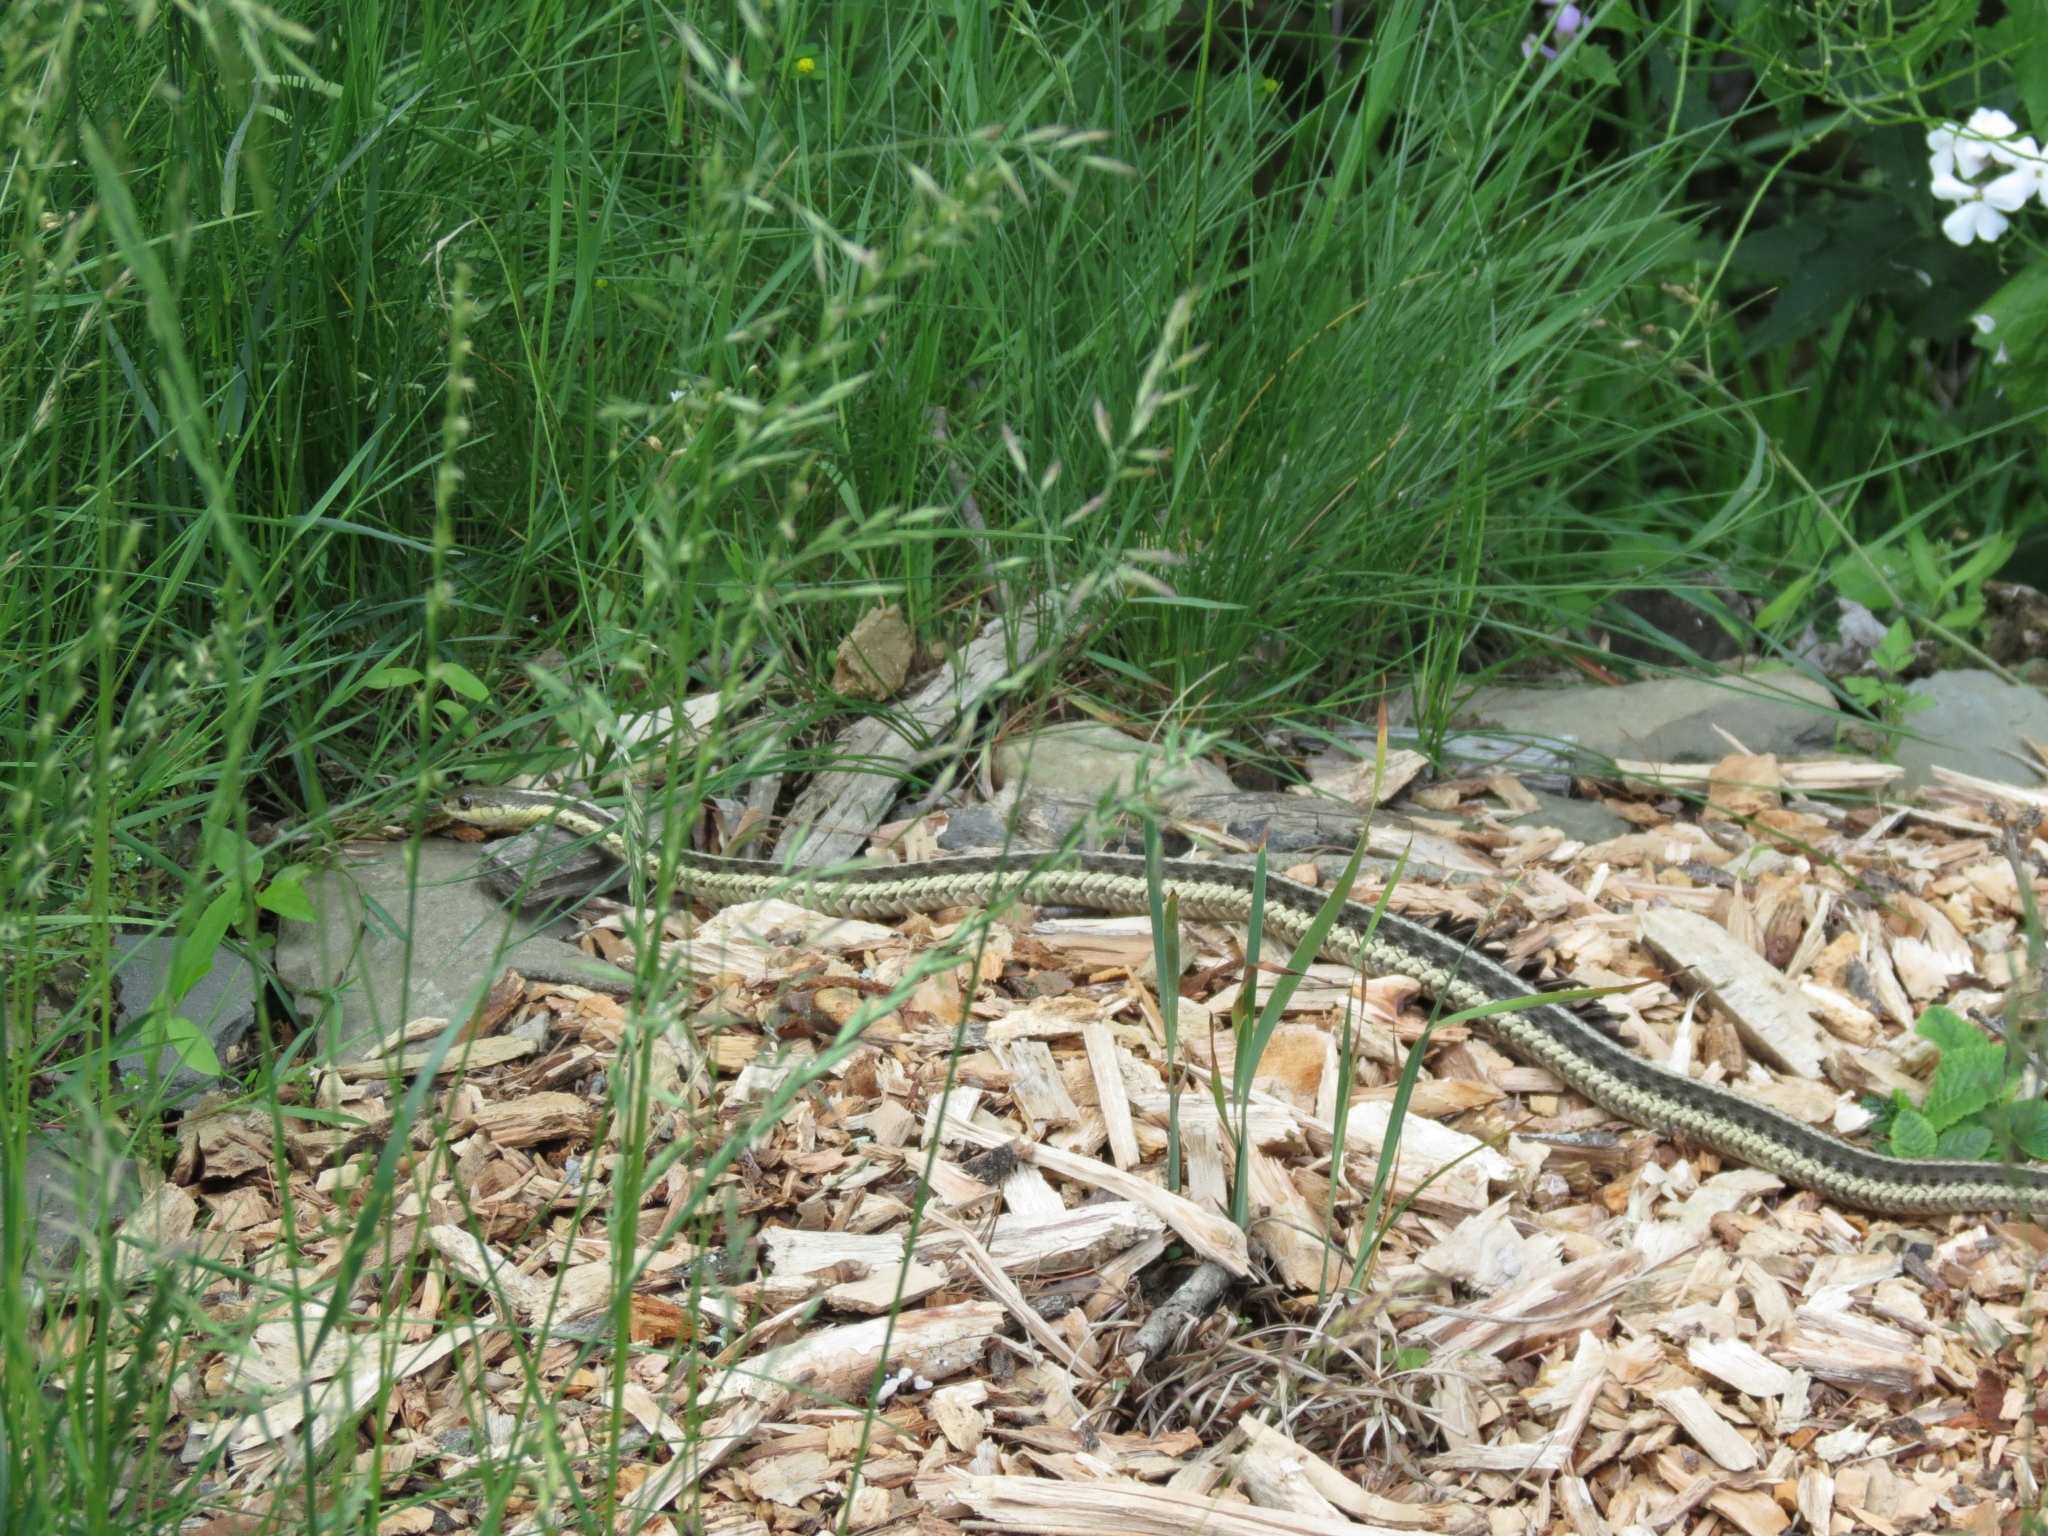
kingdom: Animalia
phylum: Chordata
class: Squamata
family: Colubridae
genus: Thamnophis
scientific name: Thamnophis sirtalis
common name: Common garter snake
